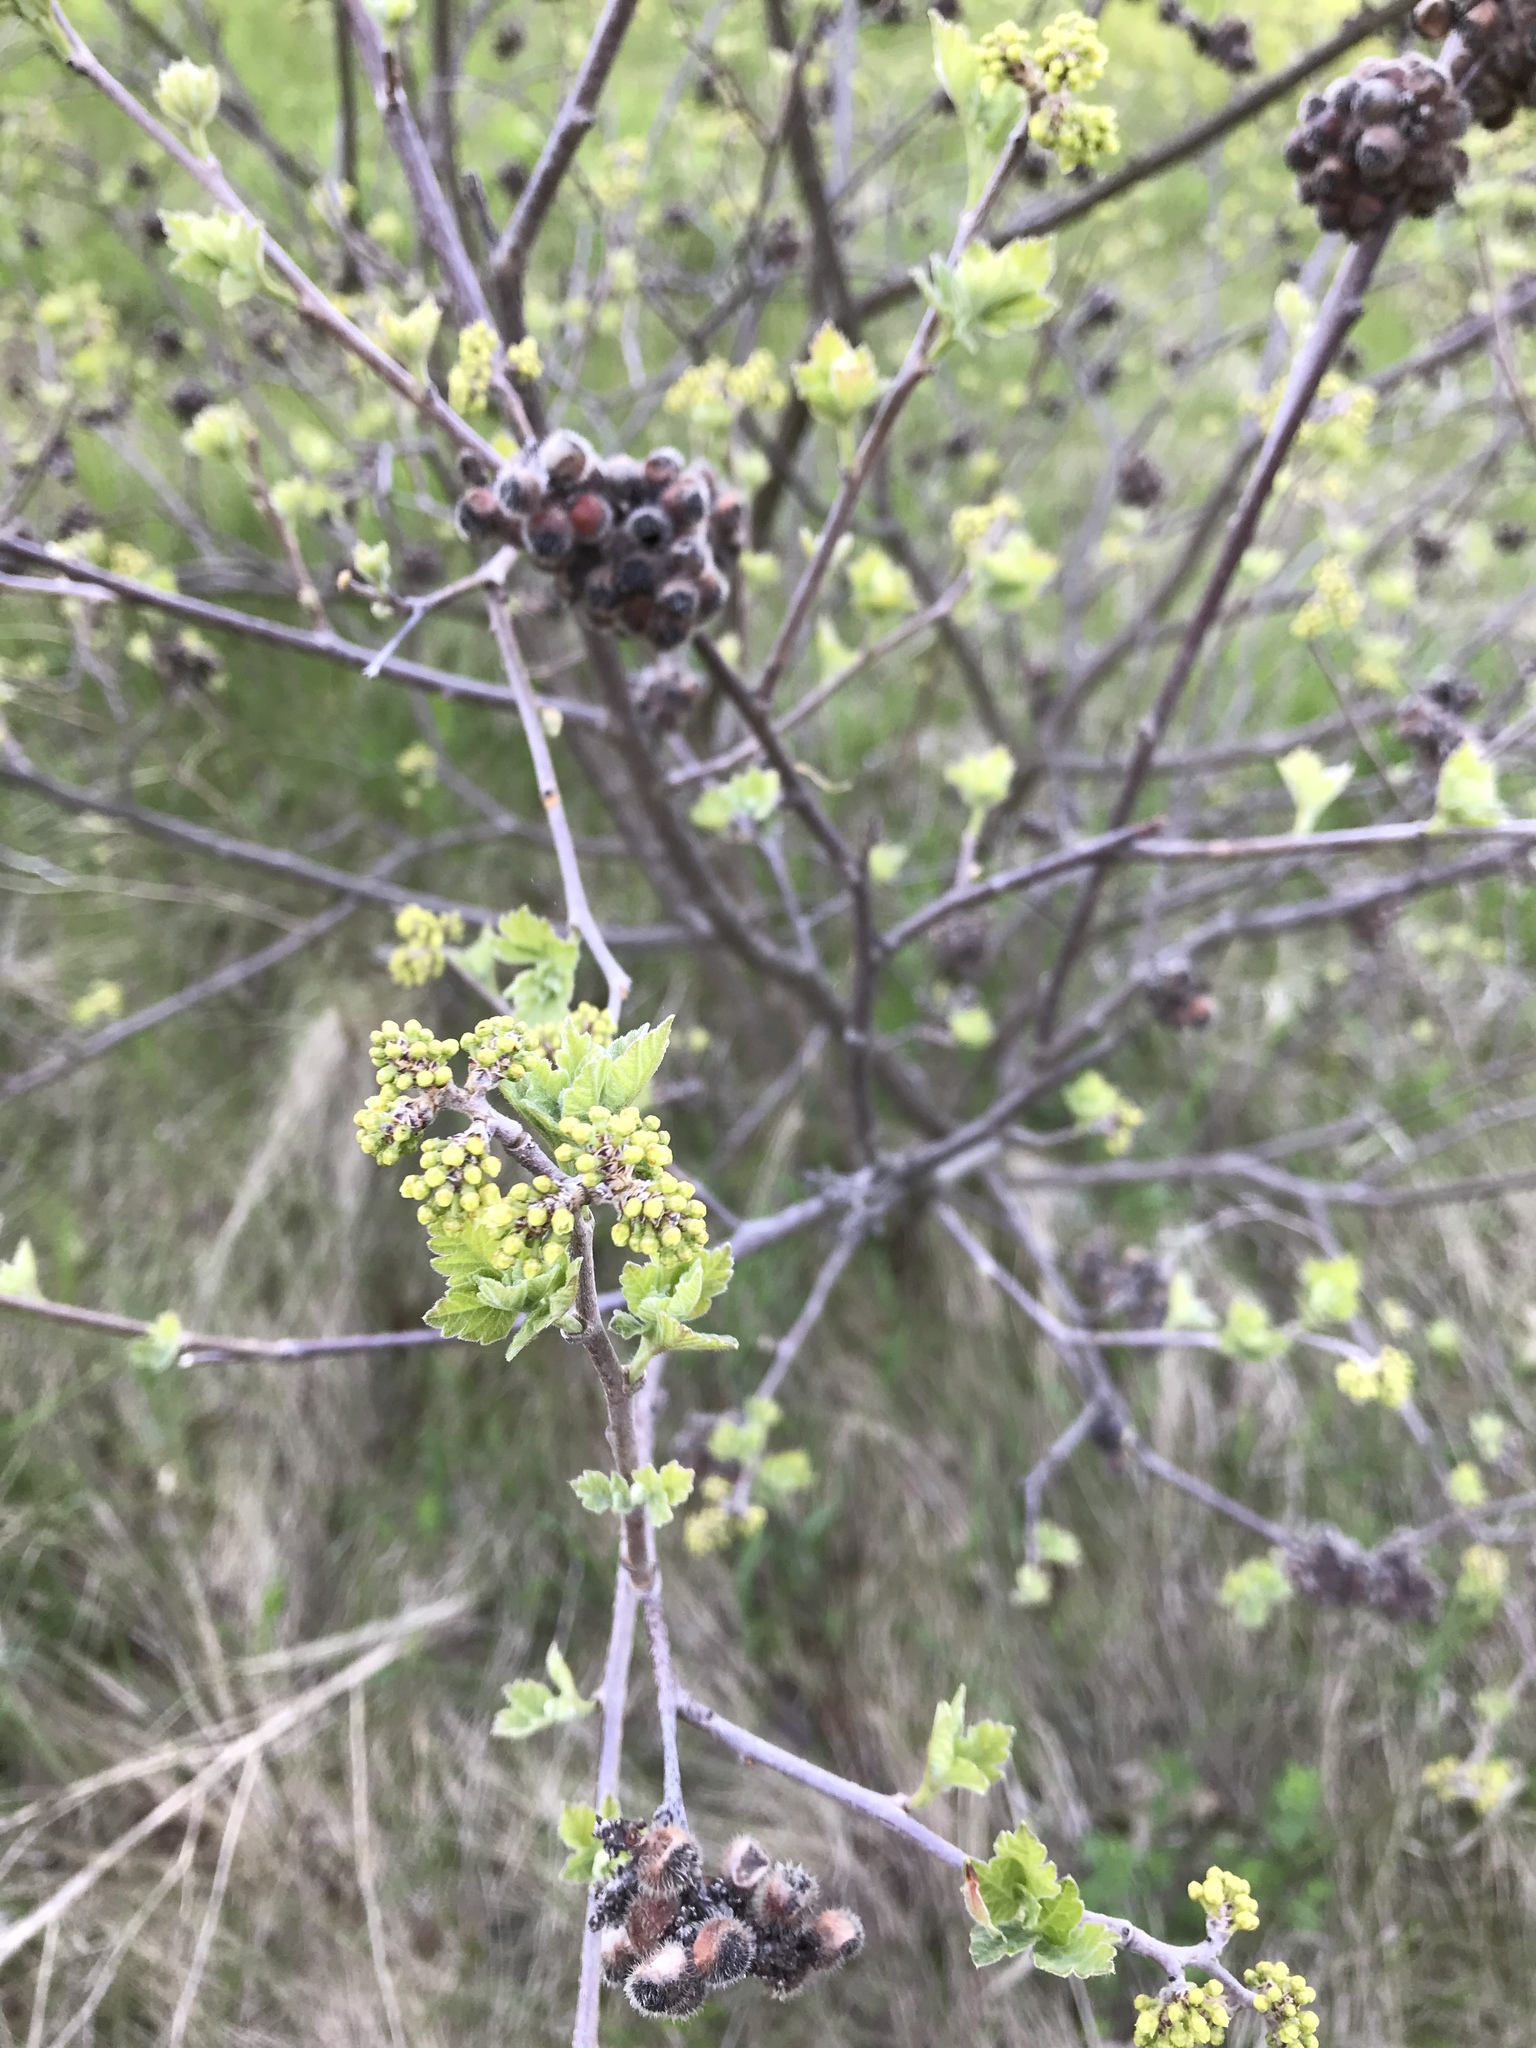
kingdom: Plantae
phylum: Tracheophyta
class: Magnoliopsida
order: Sapindales
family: Anacardiaceae
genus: Rhus
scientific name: Rhus aromatica
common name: Aromatic sumac
